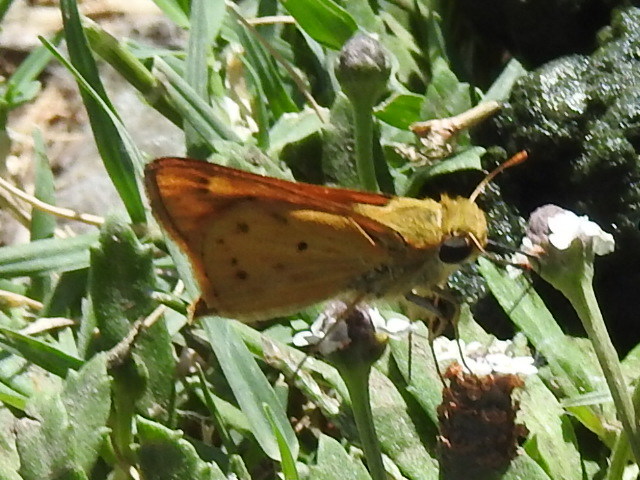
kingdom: Animalia
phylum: Arthropoda
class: Insecta
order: Lepidoptera
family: Hesperiidae
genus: Hylephila
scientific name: Hylephila phyleus
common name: Fiery skipper
